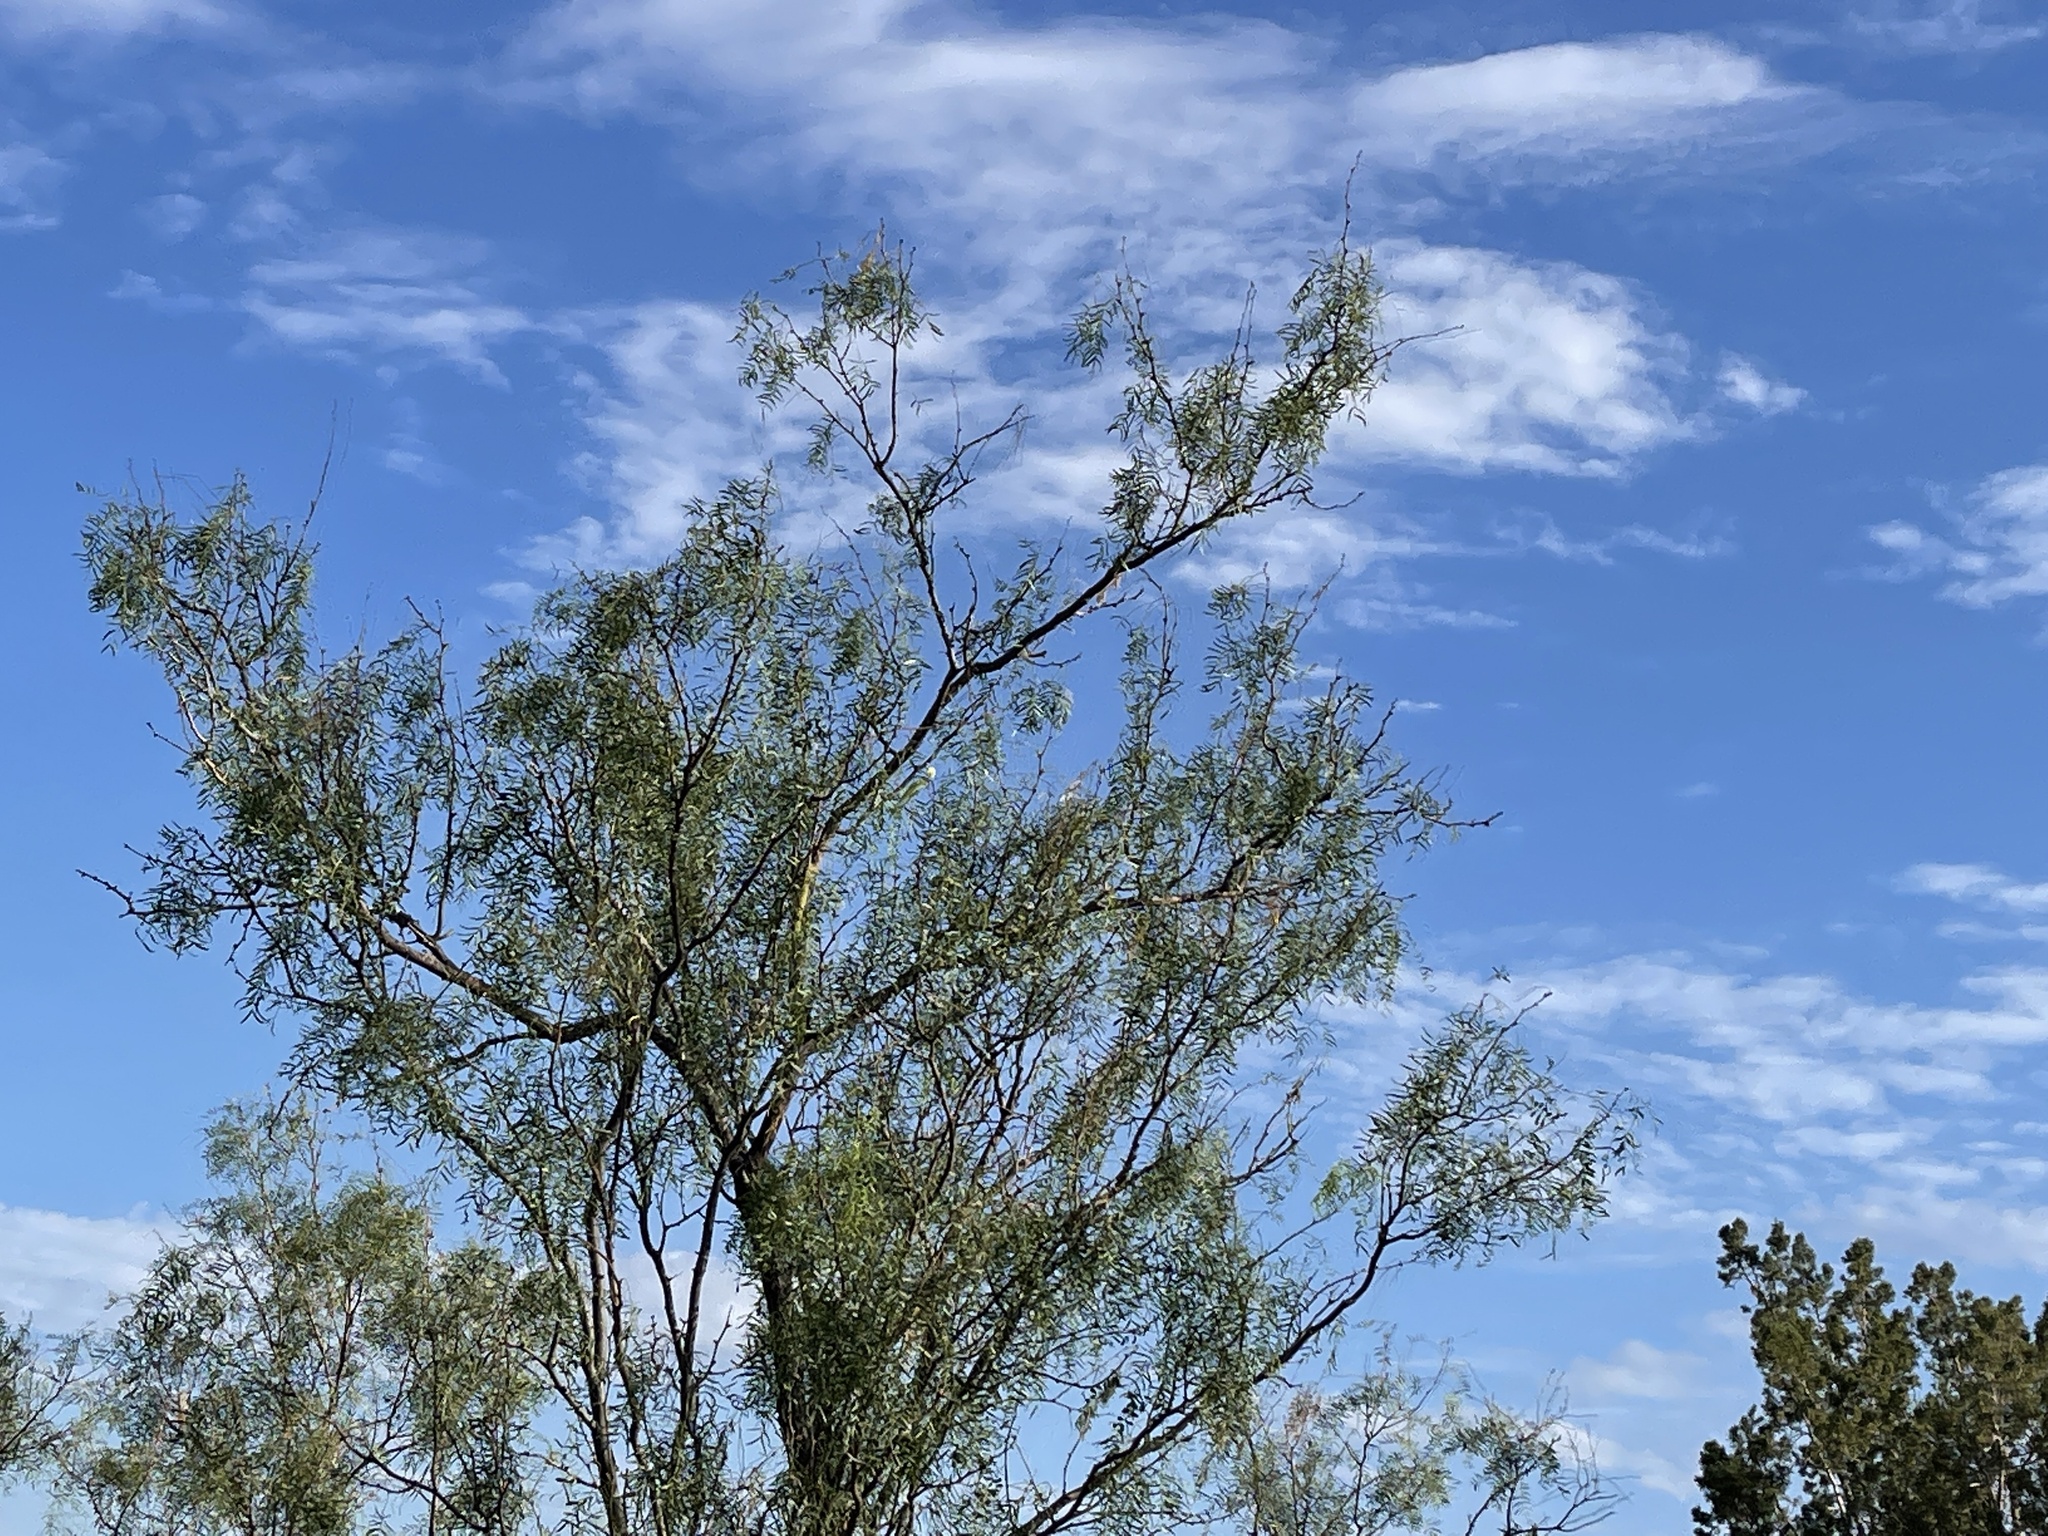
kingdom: Plantae
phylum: Tracheophyta
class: Magnoliopsida
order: Fabales
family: Fabaceae
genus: Prosopis
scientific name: Prosopis glandulosa
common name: Honey mesquite
